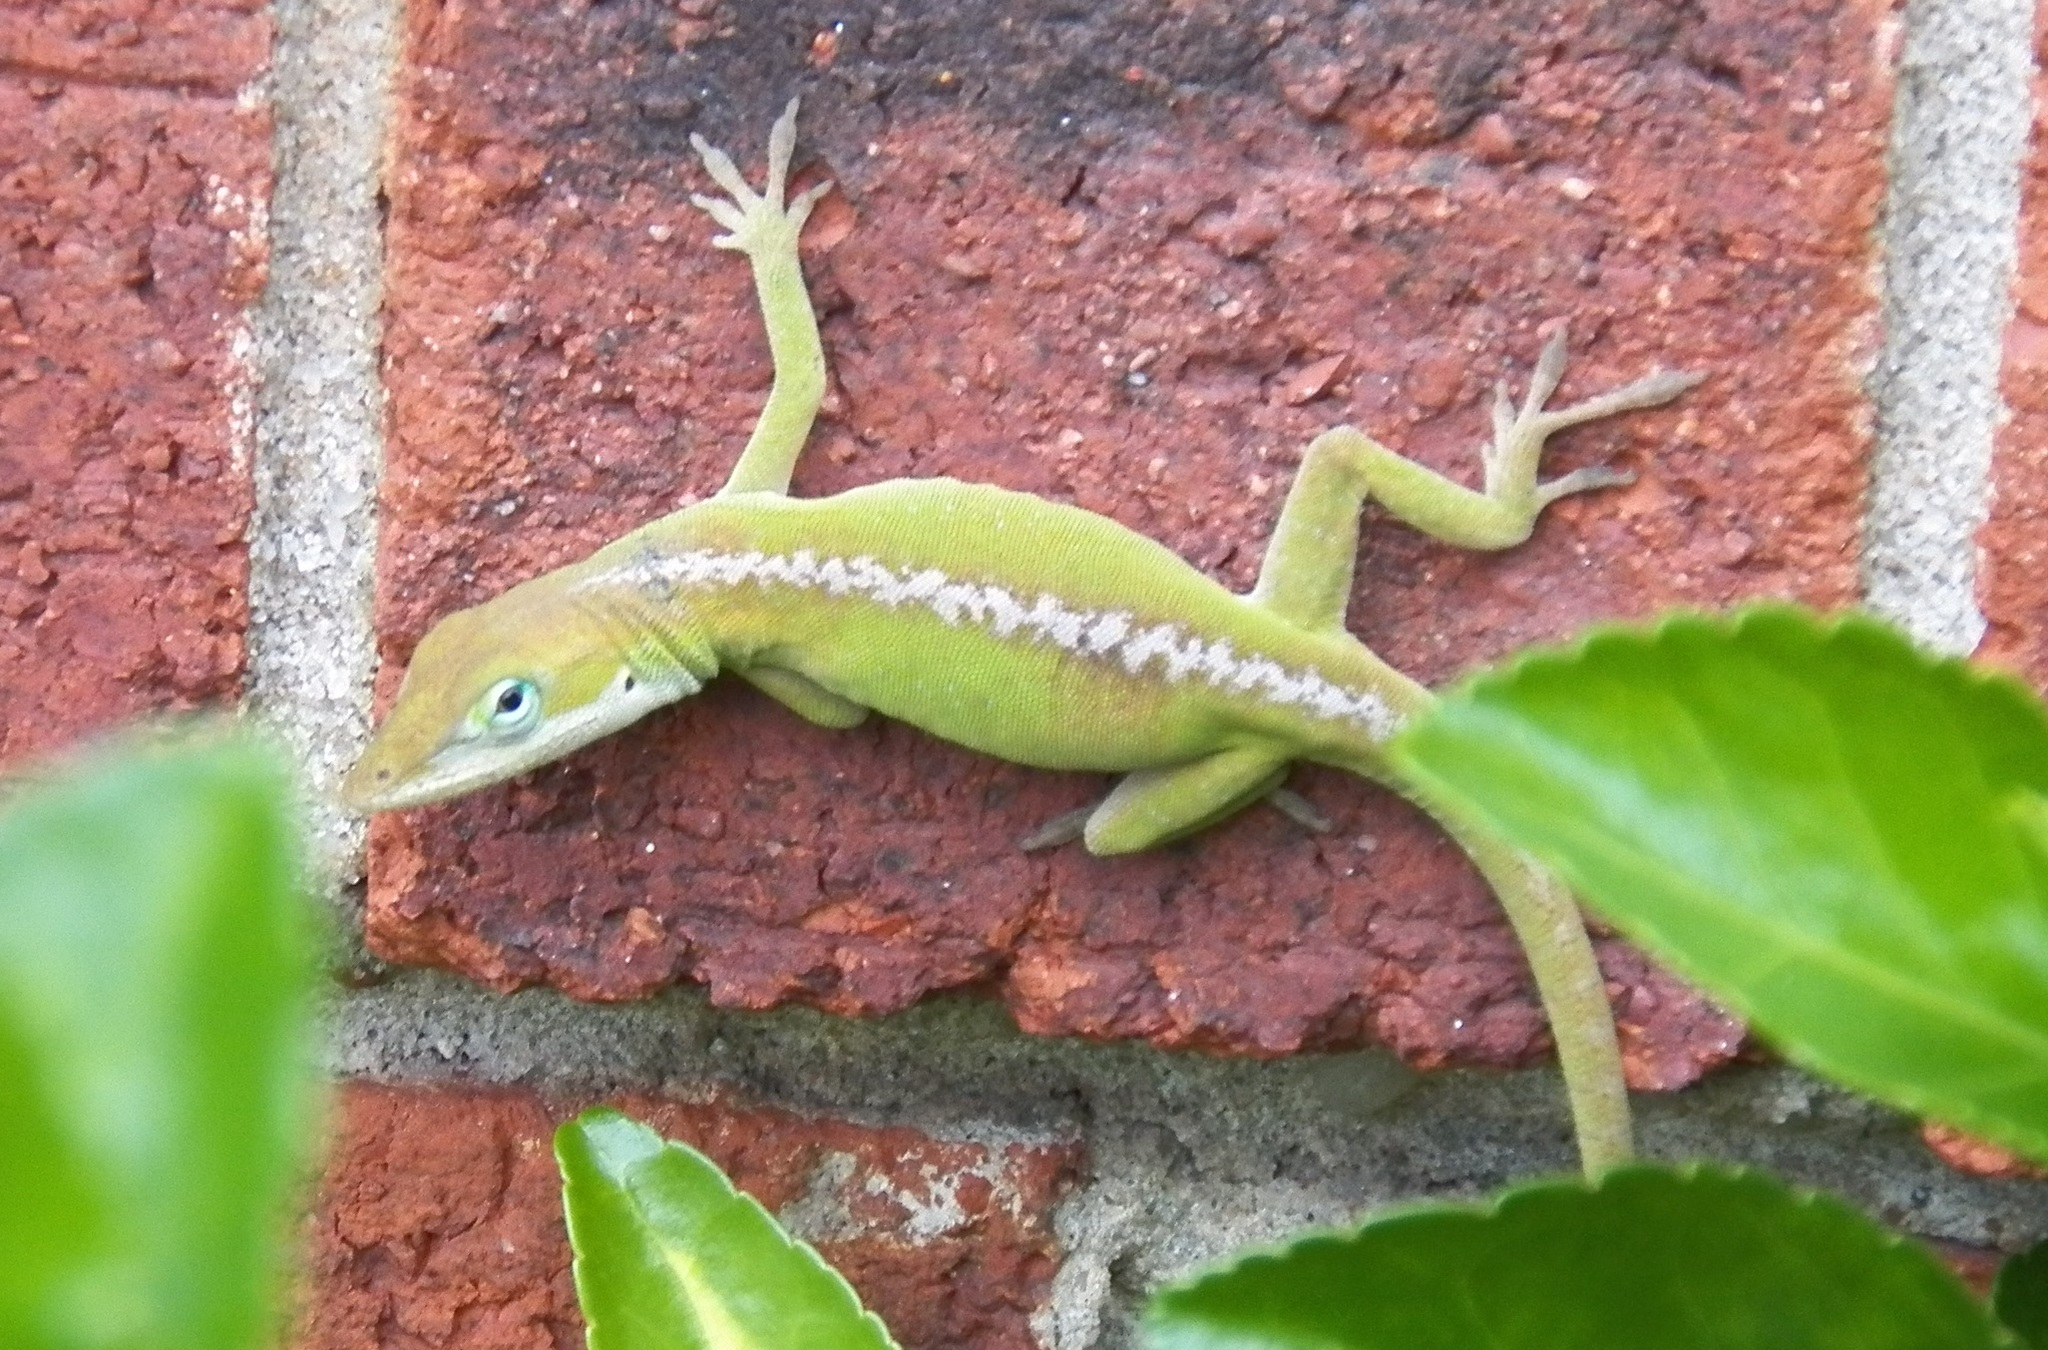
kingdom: Animalia
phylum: Chordata
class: Squamata
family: Dactyloidae
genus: Anolis
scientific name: Anolis carolinensis
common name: Green anole
